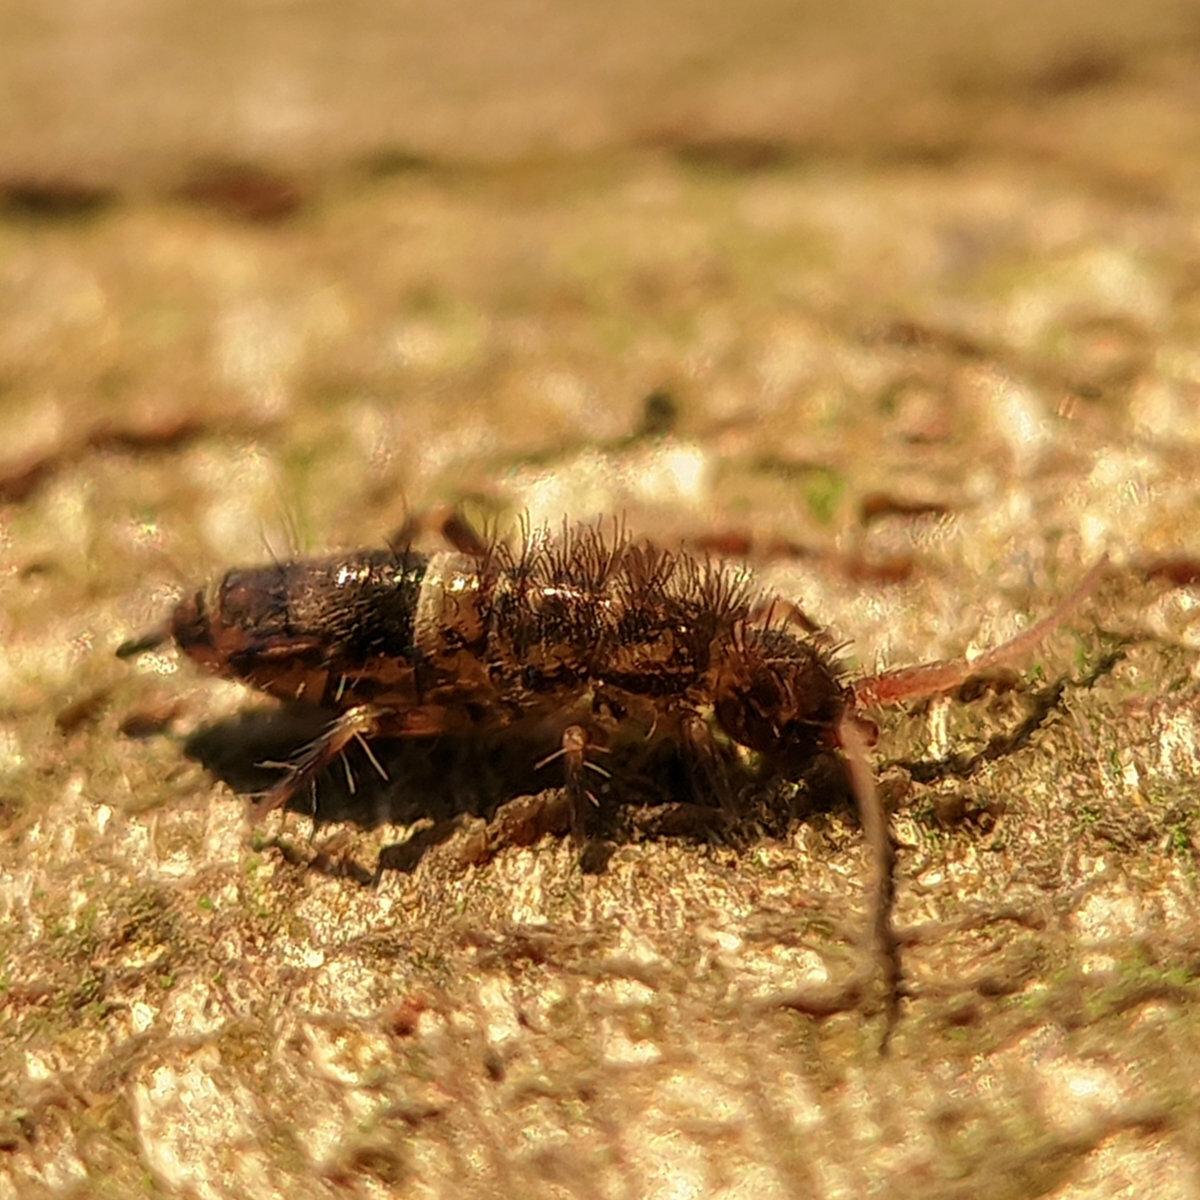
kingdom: Animalia
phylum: Arthropoda
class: Collembola
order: Entomobryomorpha
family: Orchesellidae
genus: Orchesella
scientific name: Orchesella cincta
